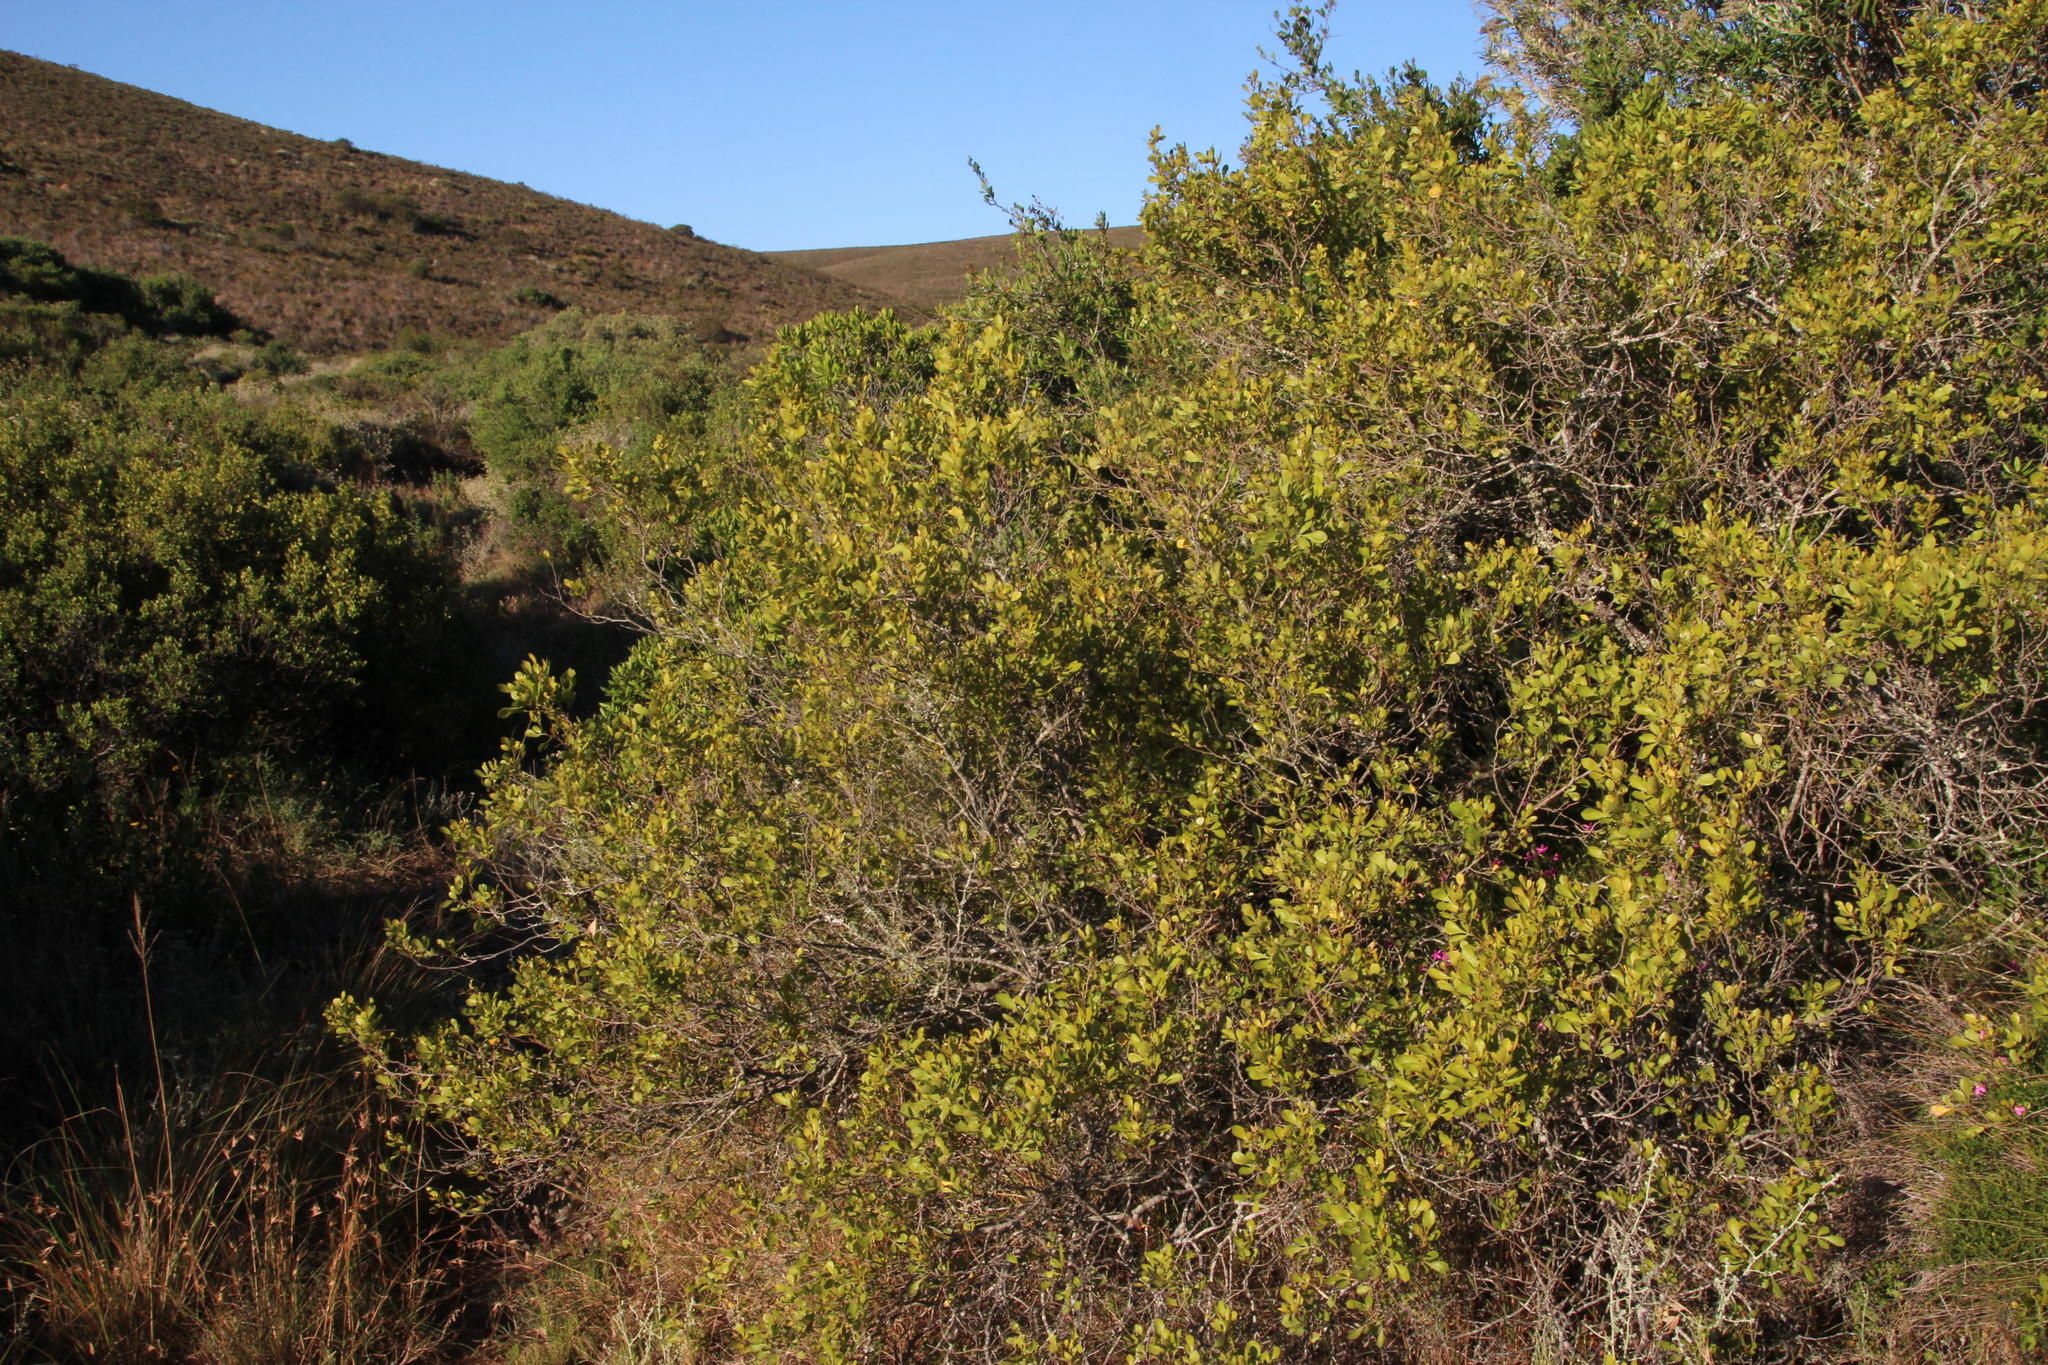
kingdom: Plantae
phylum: Tracheophyta
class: Magnoliopsida
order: Sapindales
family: Anacardiaceae
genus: Searsia
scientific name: Searsia pallens
